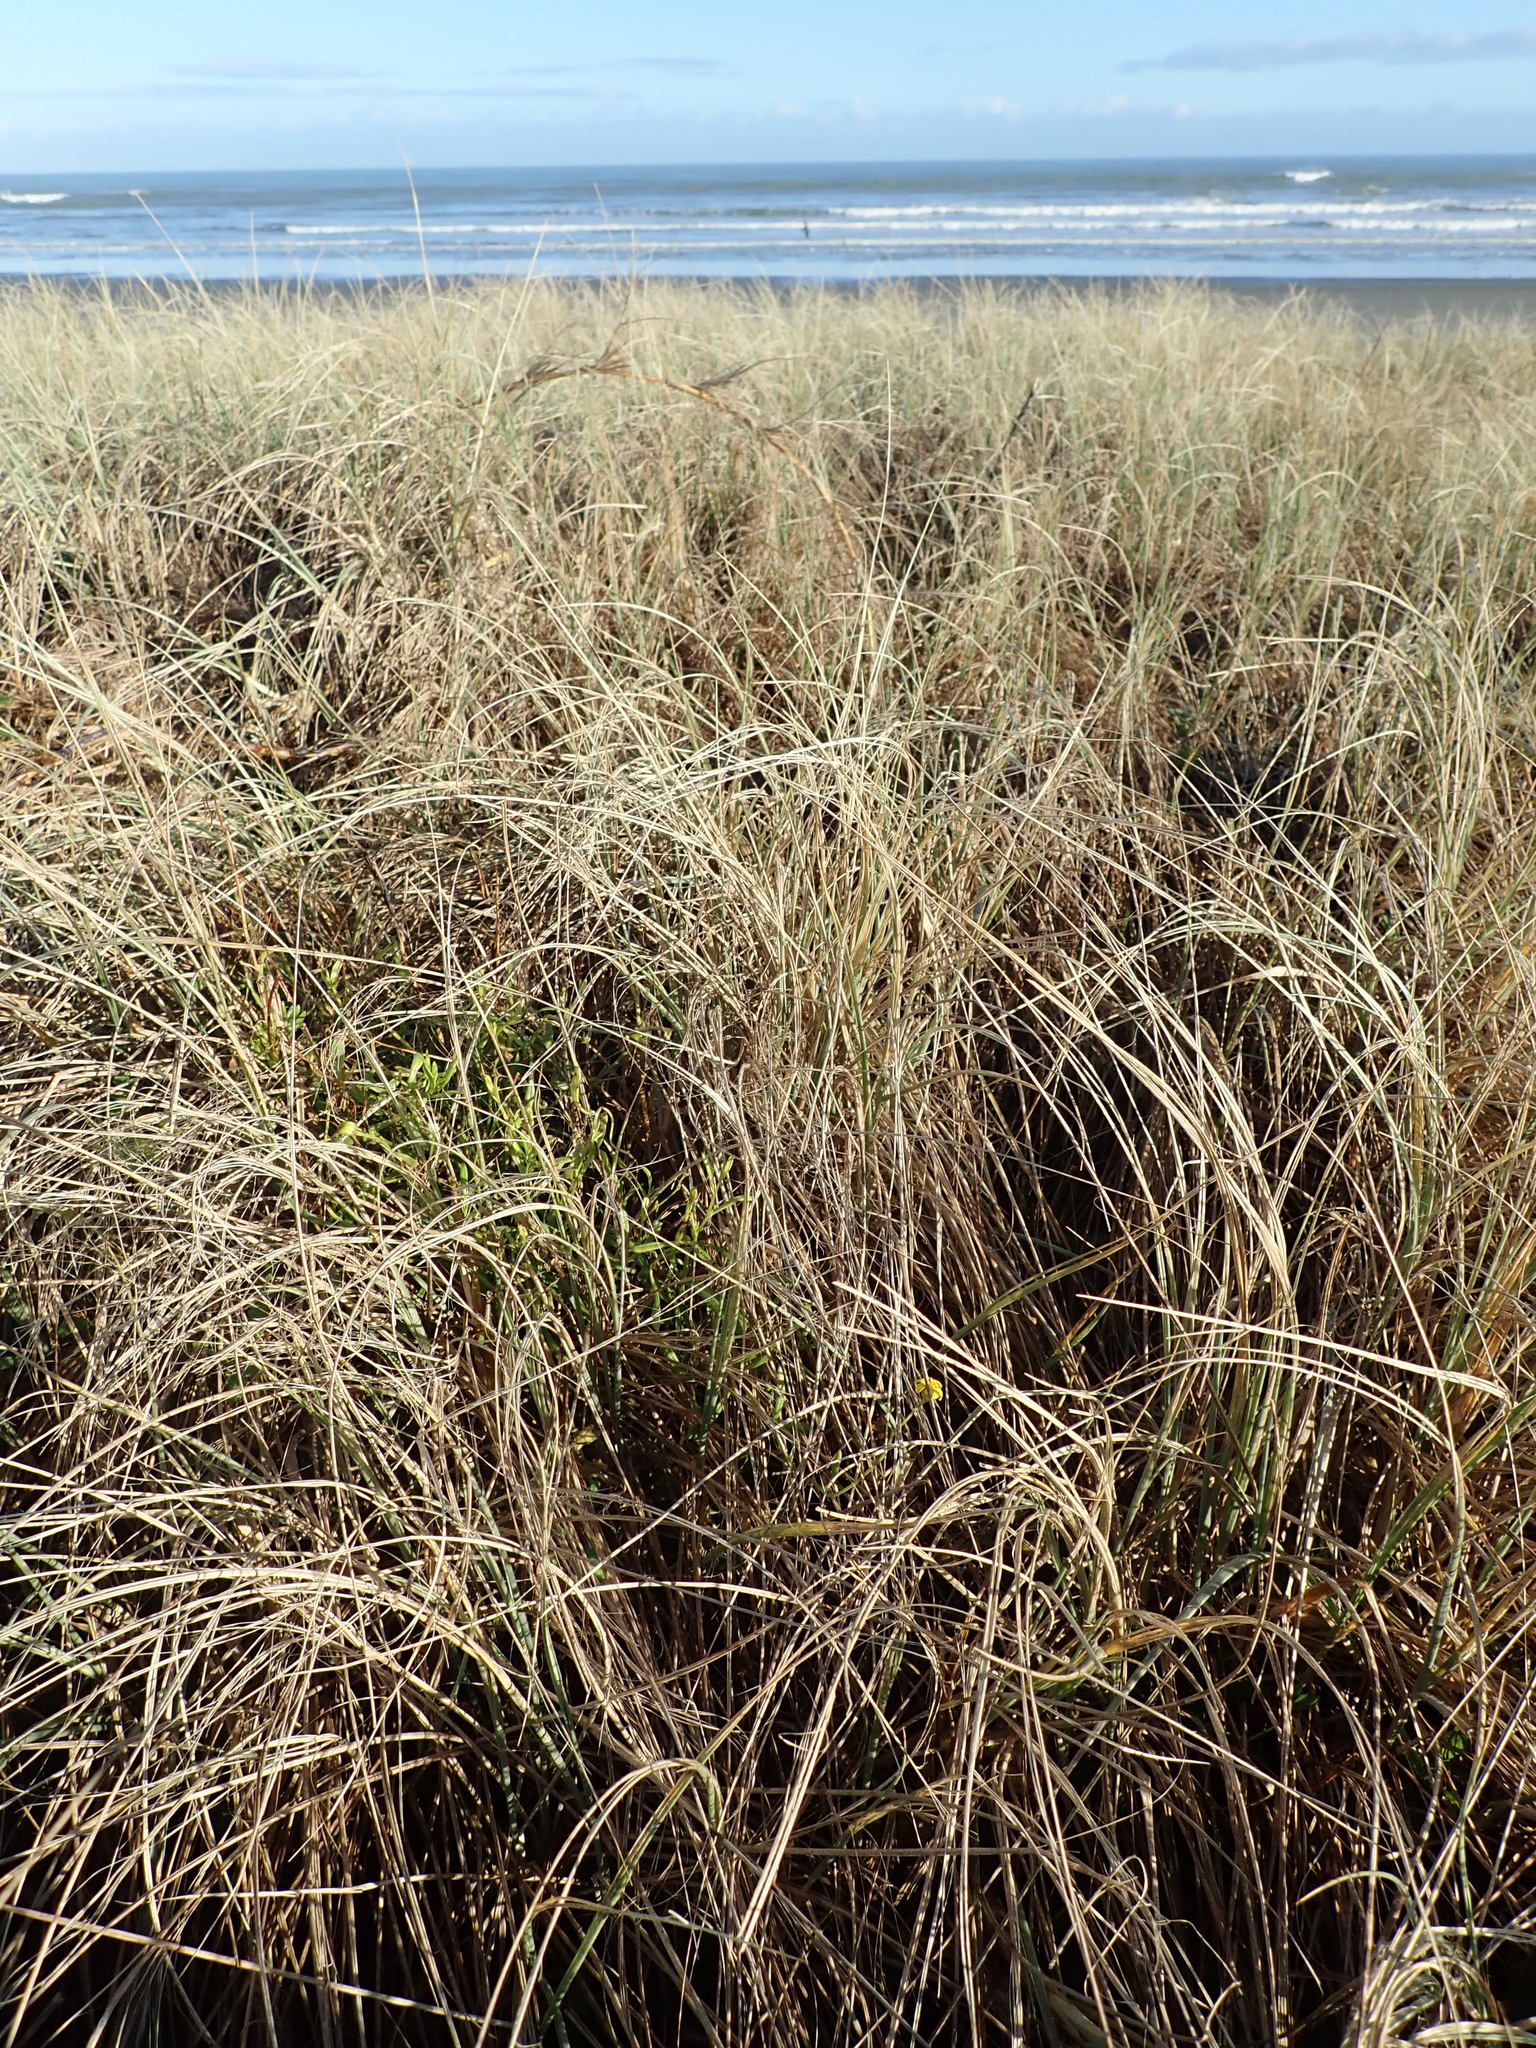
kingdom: Plantae
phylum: Tracheophyta
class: Magnoliopsida
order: Asterales
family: Asteraceae
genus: Senecio
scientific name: Senecio skirrhodon
